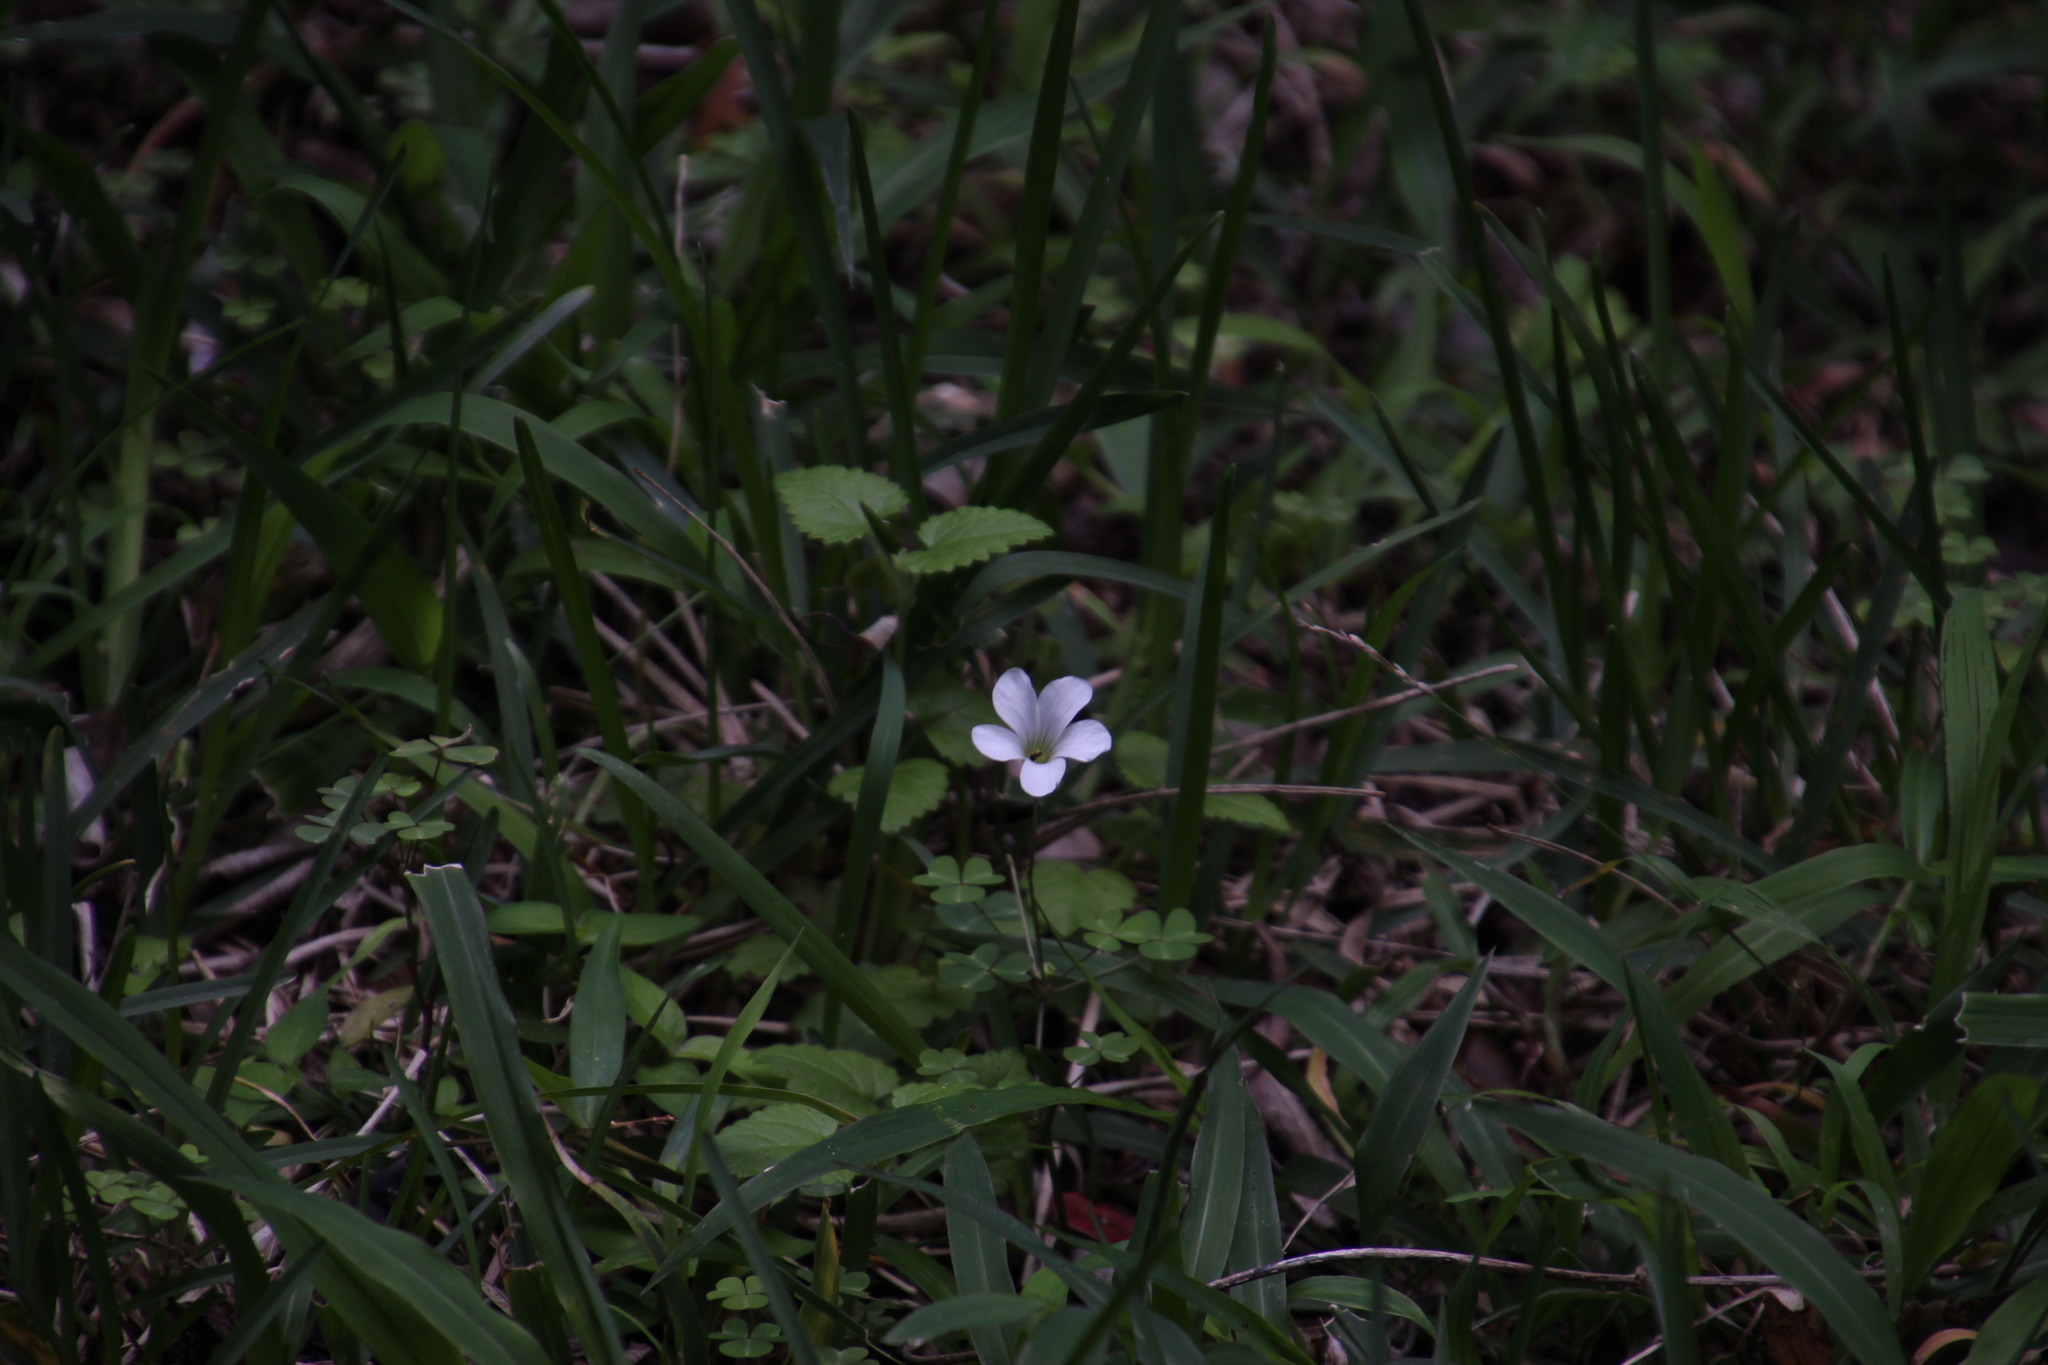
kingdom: Plantae
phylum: Tracheophyta
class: Magnoliopsida
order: Oxalidales
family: Oxalidaceae
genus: Oxalis
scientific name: Oxalis incarnata
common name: Pale pink-sorrel
